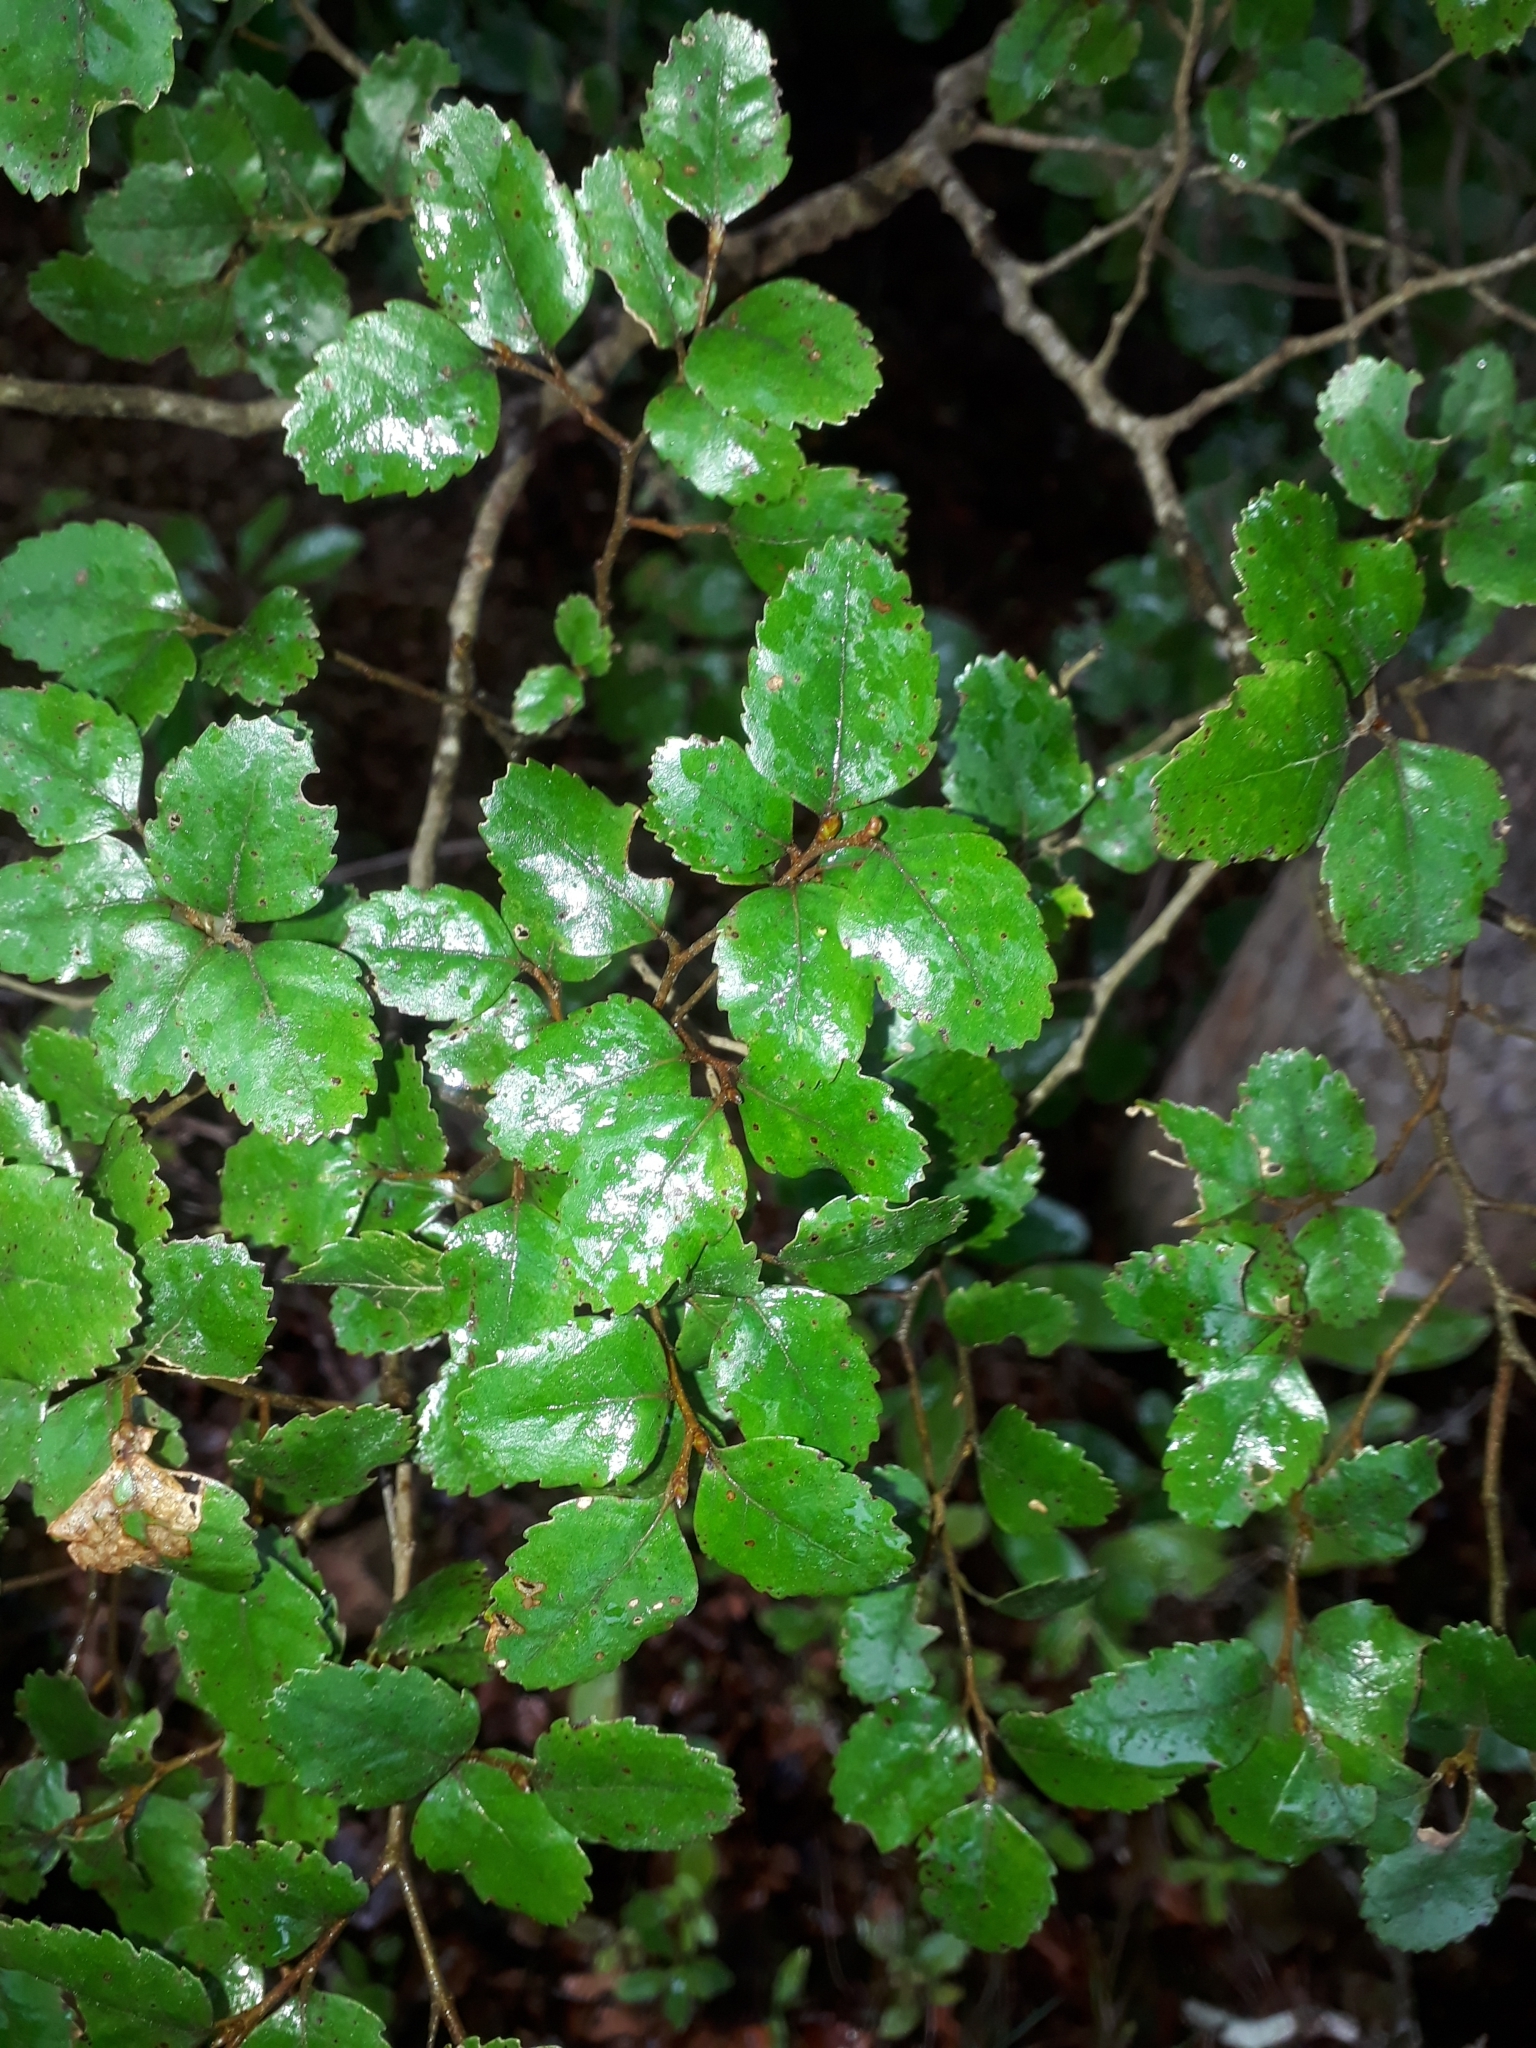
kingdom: Plantae
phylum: Tracheophyta
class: Magnoliopsida
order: Fagales
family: Nothofagaceae
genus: Nothofagus
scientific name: Nothofagus truncata
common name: Hard beech
